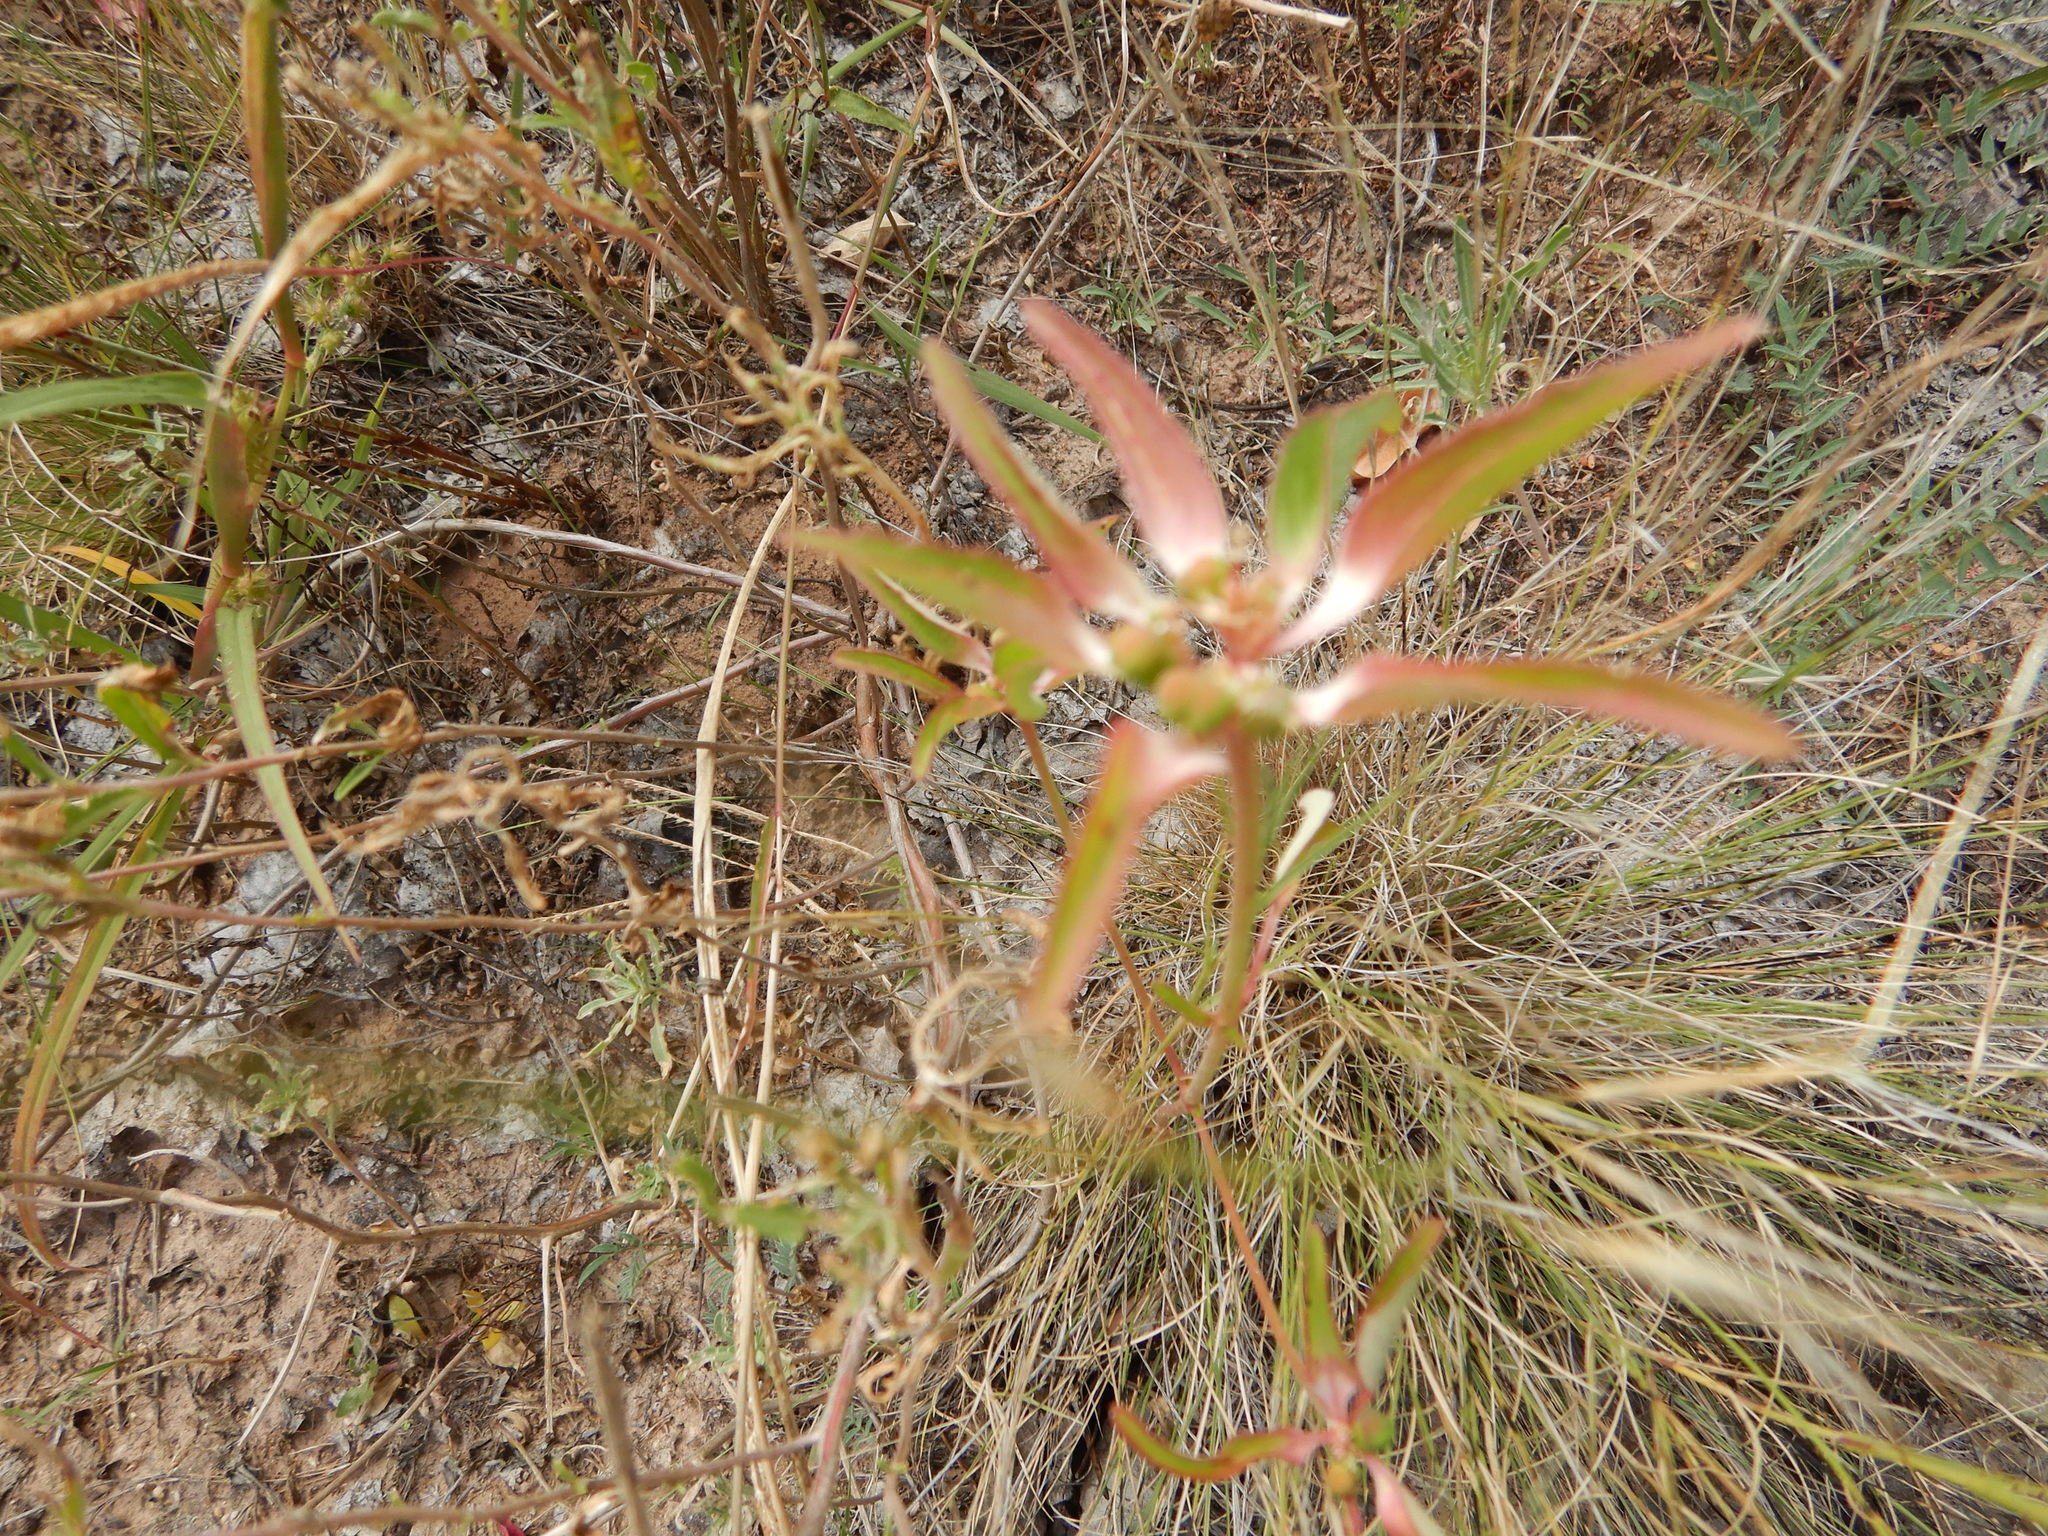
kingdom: Plantae
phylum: Tracheophyta
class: Magnoliopsida
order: Malpighiales
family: Euphorbiaceae
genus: Euphorbia
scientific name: Euphorbia davidii
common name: David's spurge
